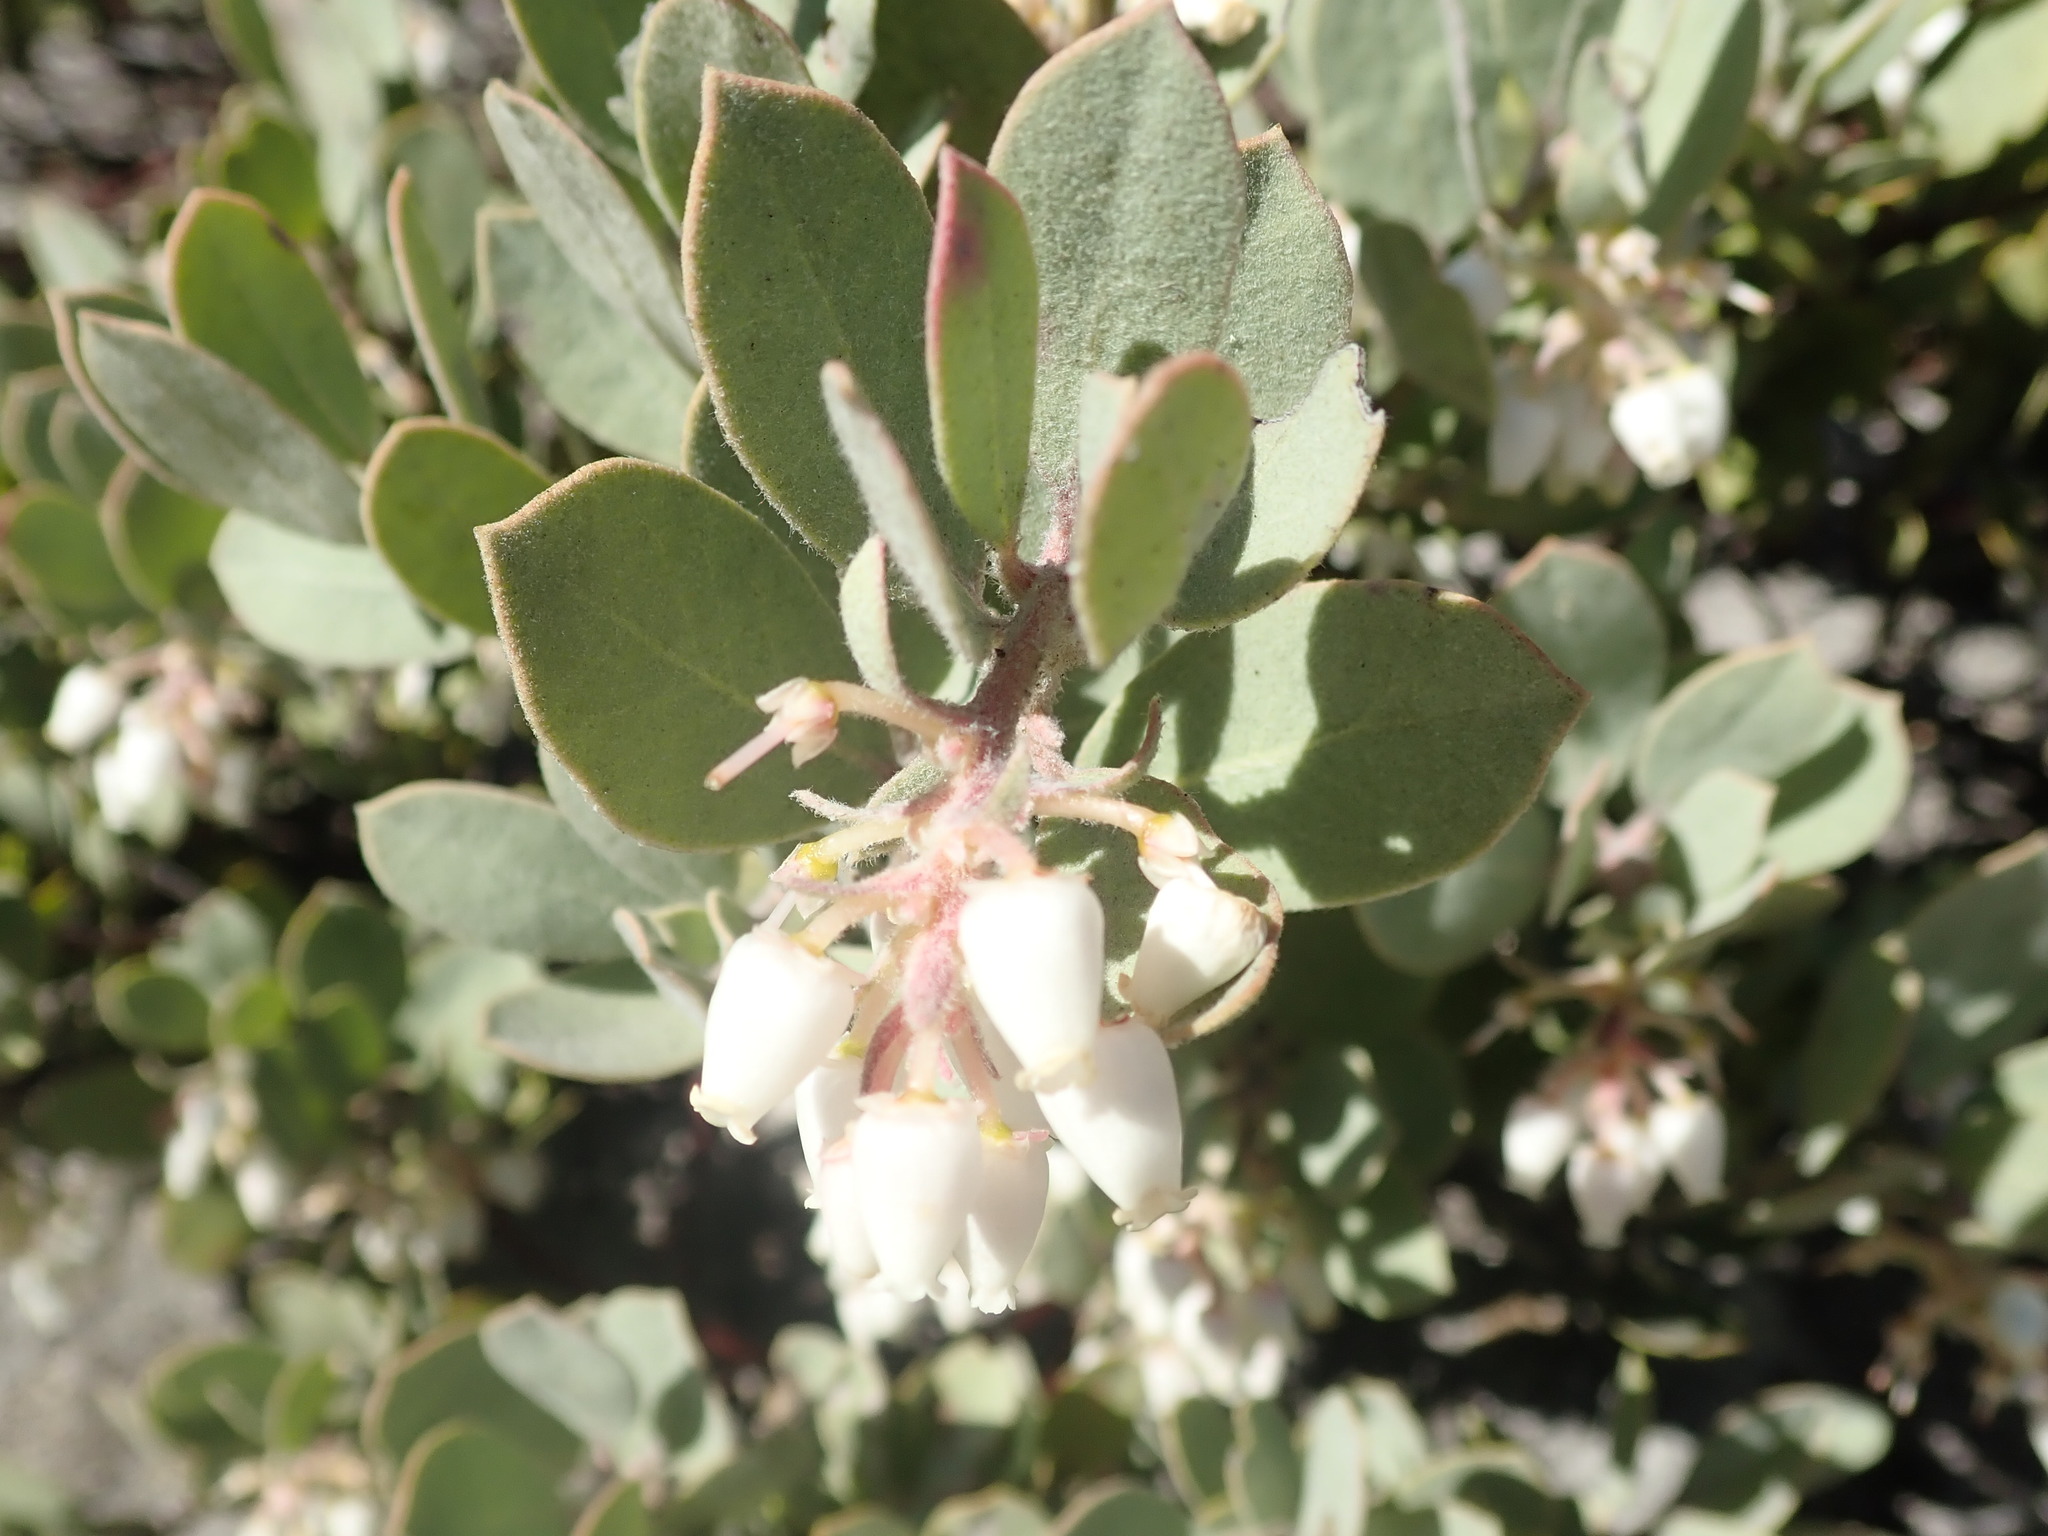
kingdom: Plantae
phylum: Tracheophyta
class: Magnoliopsida
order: Ericales
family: Ericaceae
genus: Arctostaphylos
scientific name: Arctostaphylos silvicola
